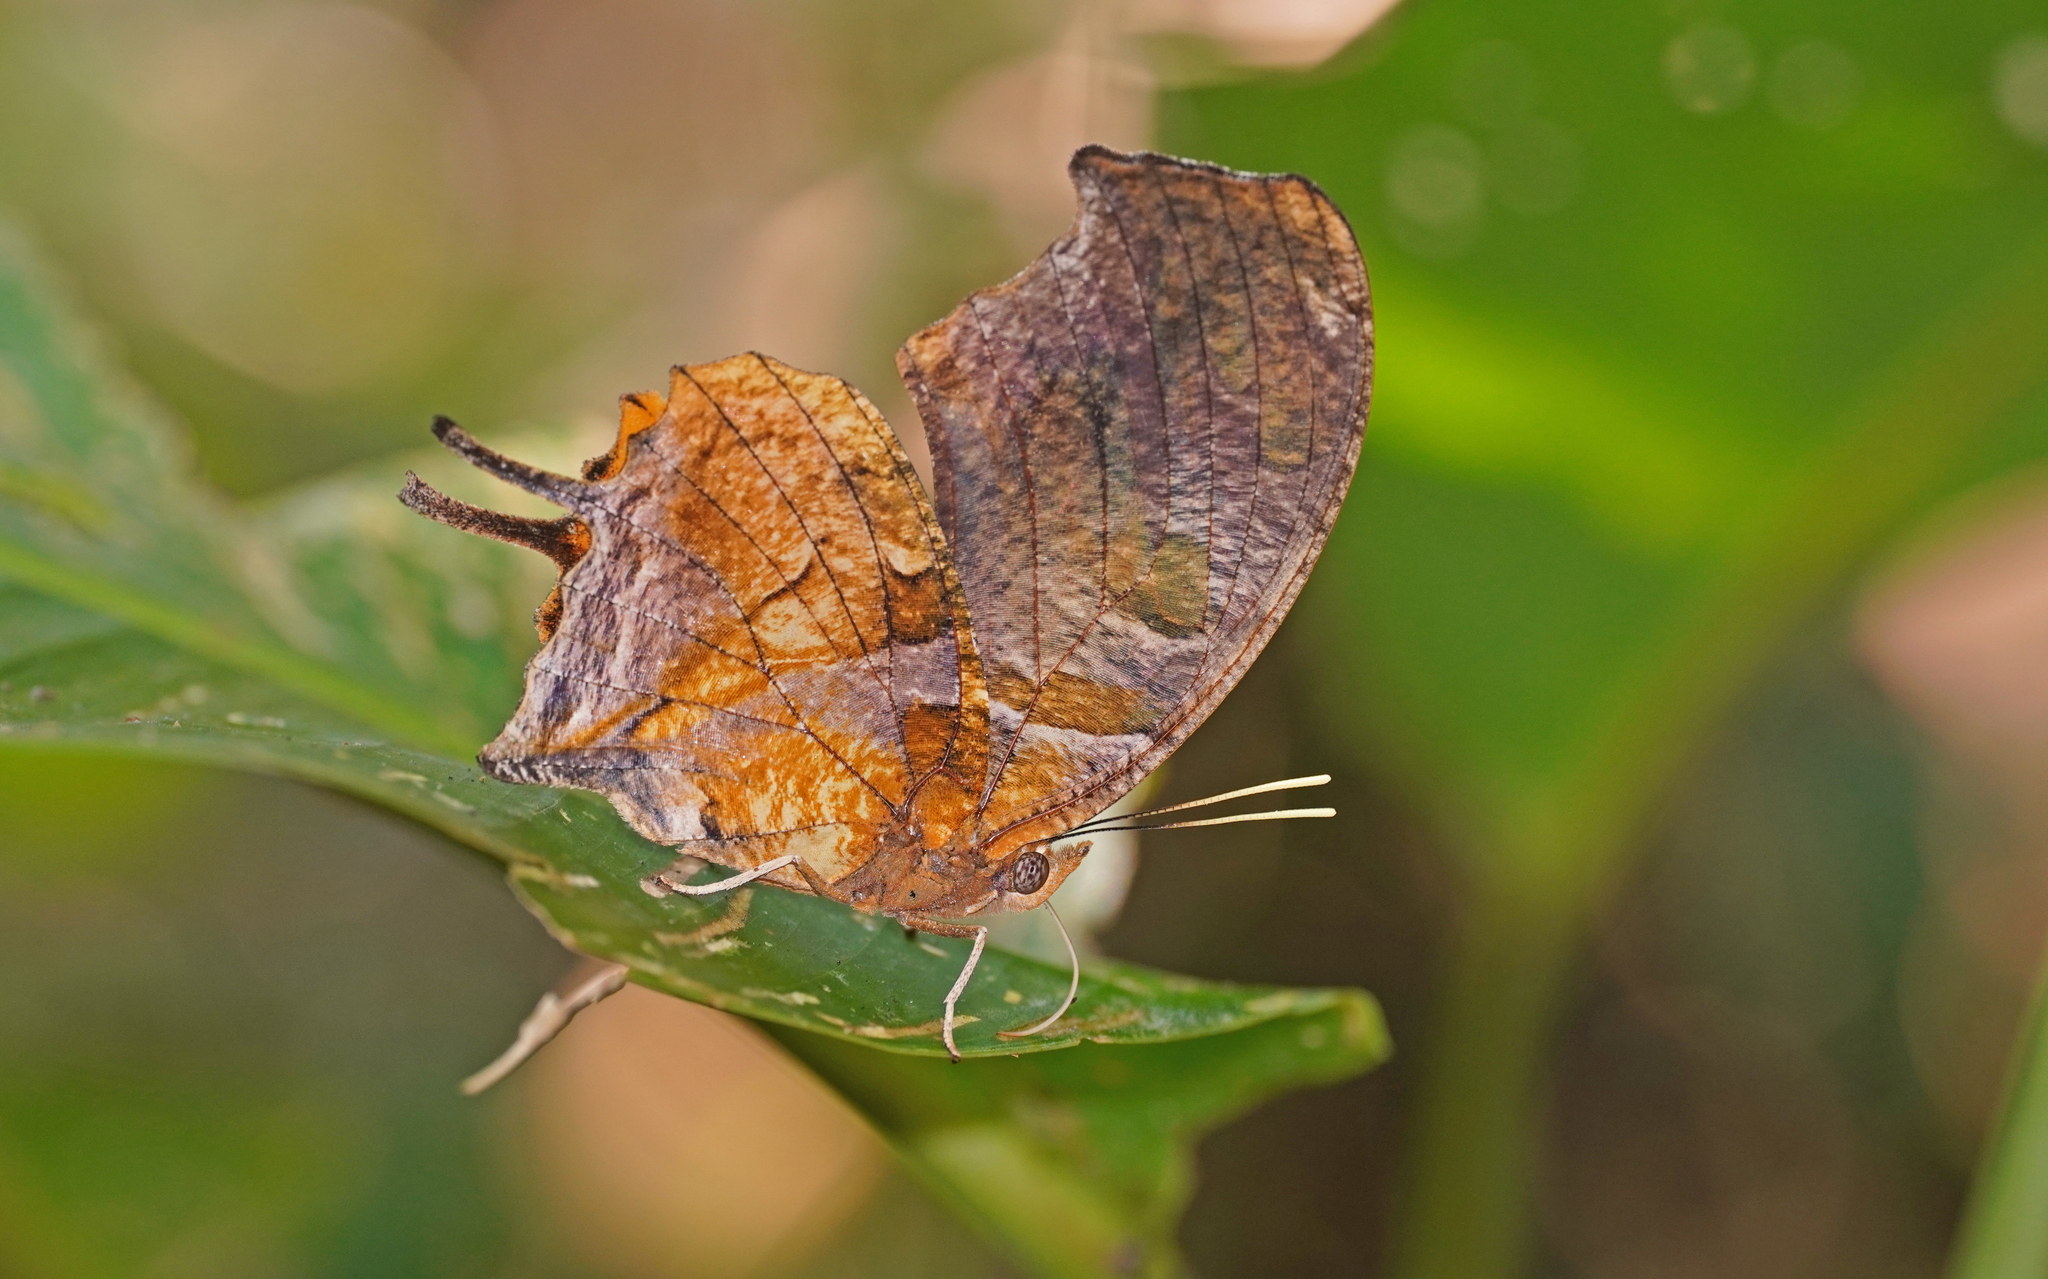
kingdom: Animalia
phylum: Arthropoda
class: Insecta
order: Lepidoptera
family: Nymphalidae
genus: Consul
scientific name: Consul fabius
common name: Tiger leafwing
